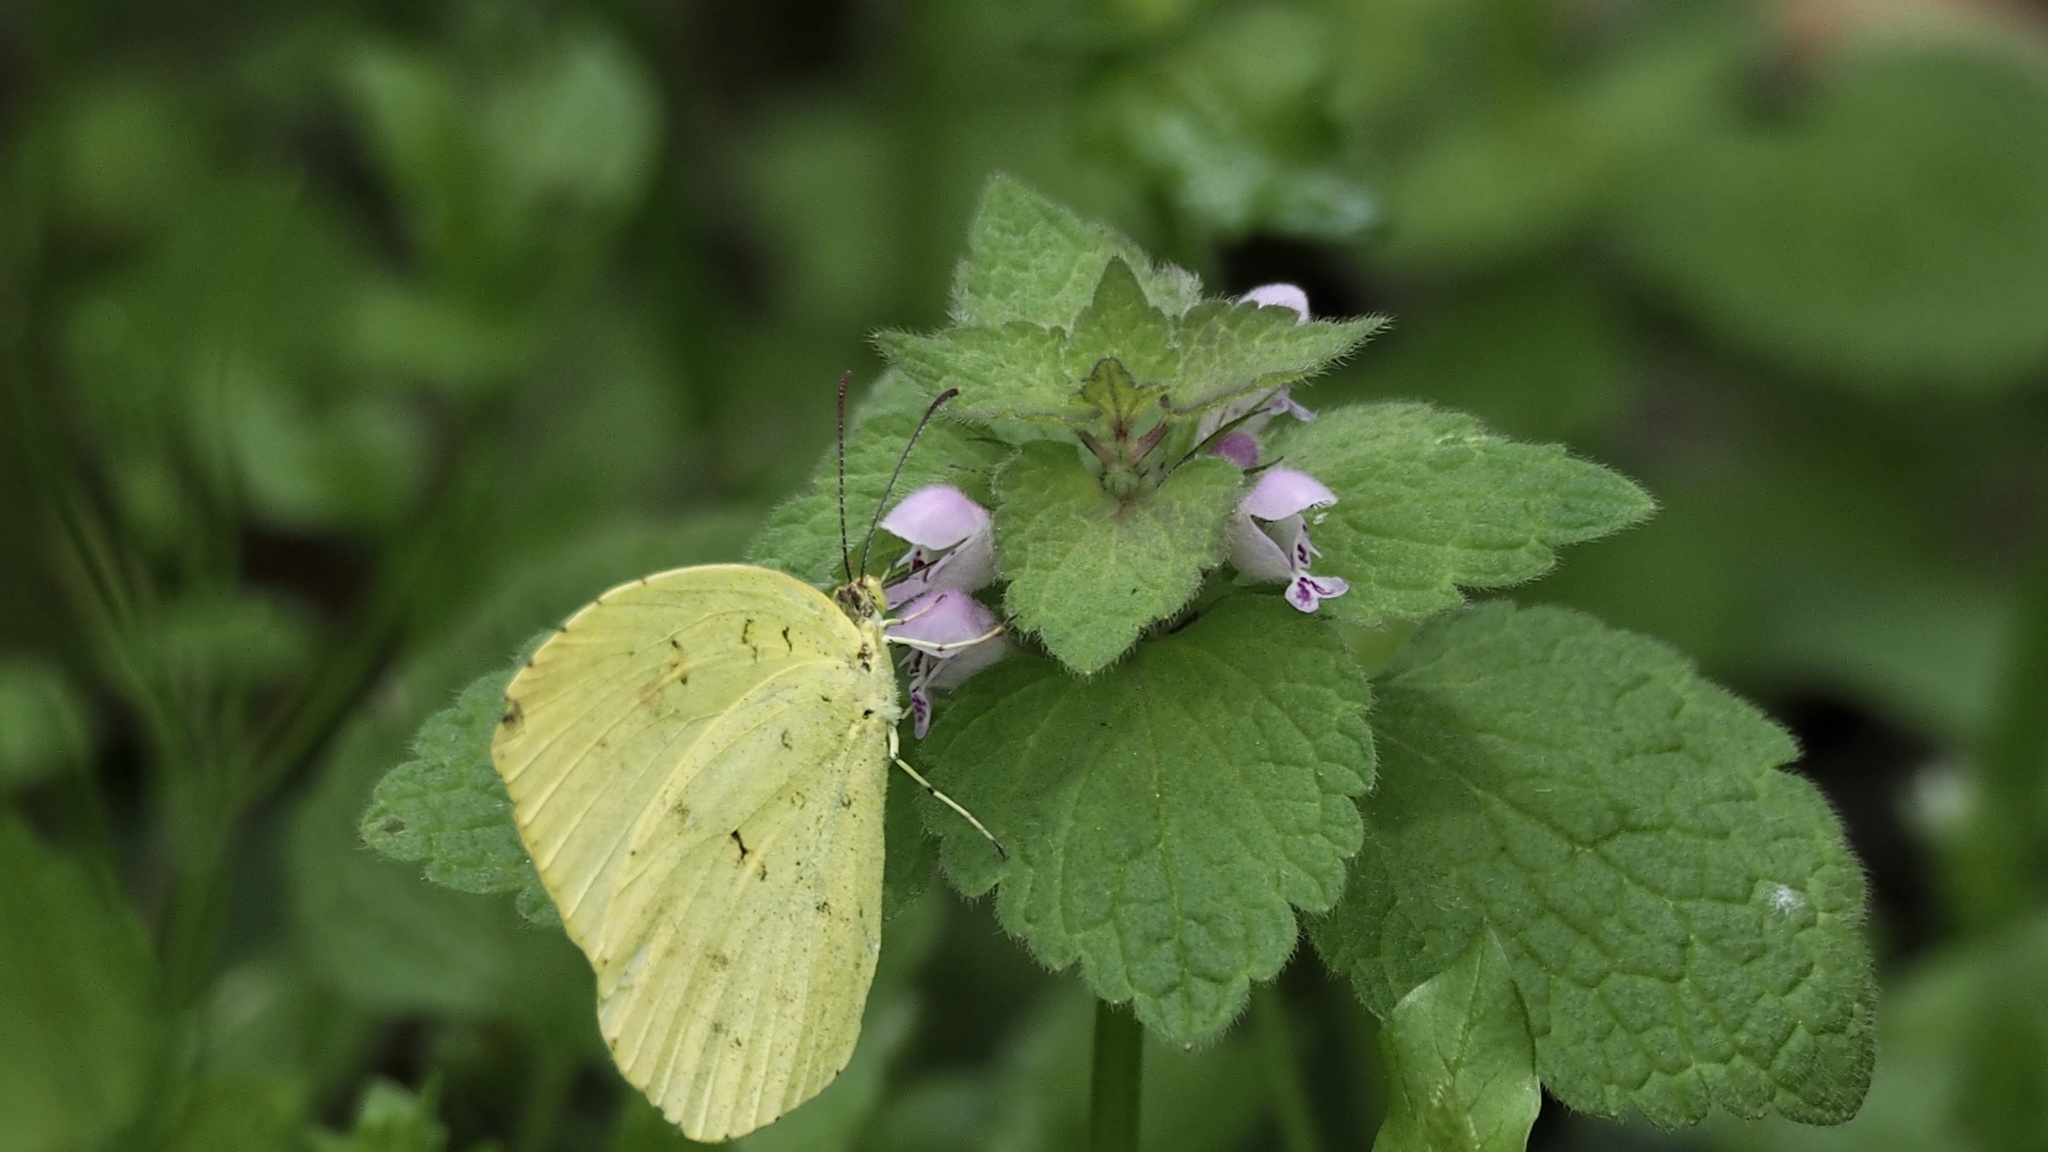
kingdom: Animalia
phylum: Arthropoda
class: Insecta
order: Lepidoptera
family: Pieridae
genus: Eurema
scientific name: Eurema mandarina
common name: Japanese common grass yellow
